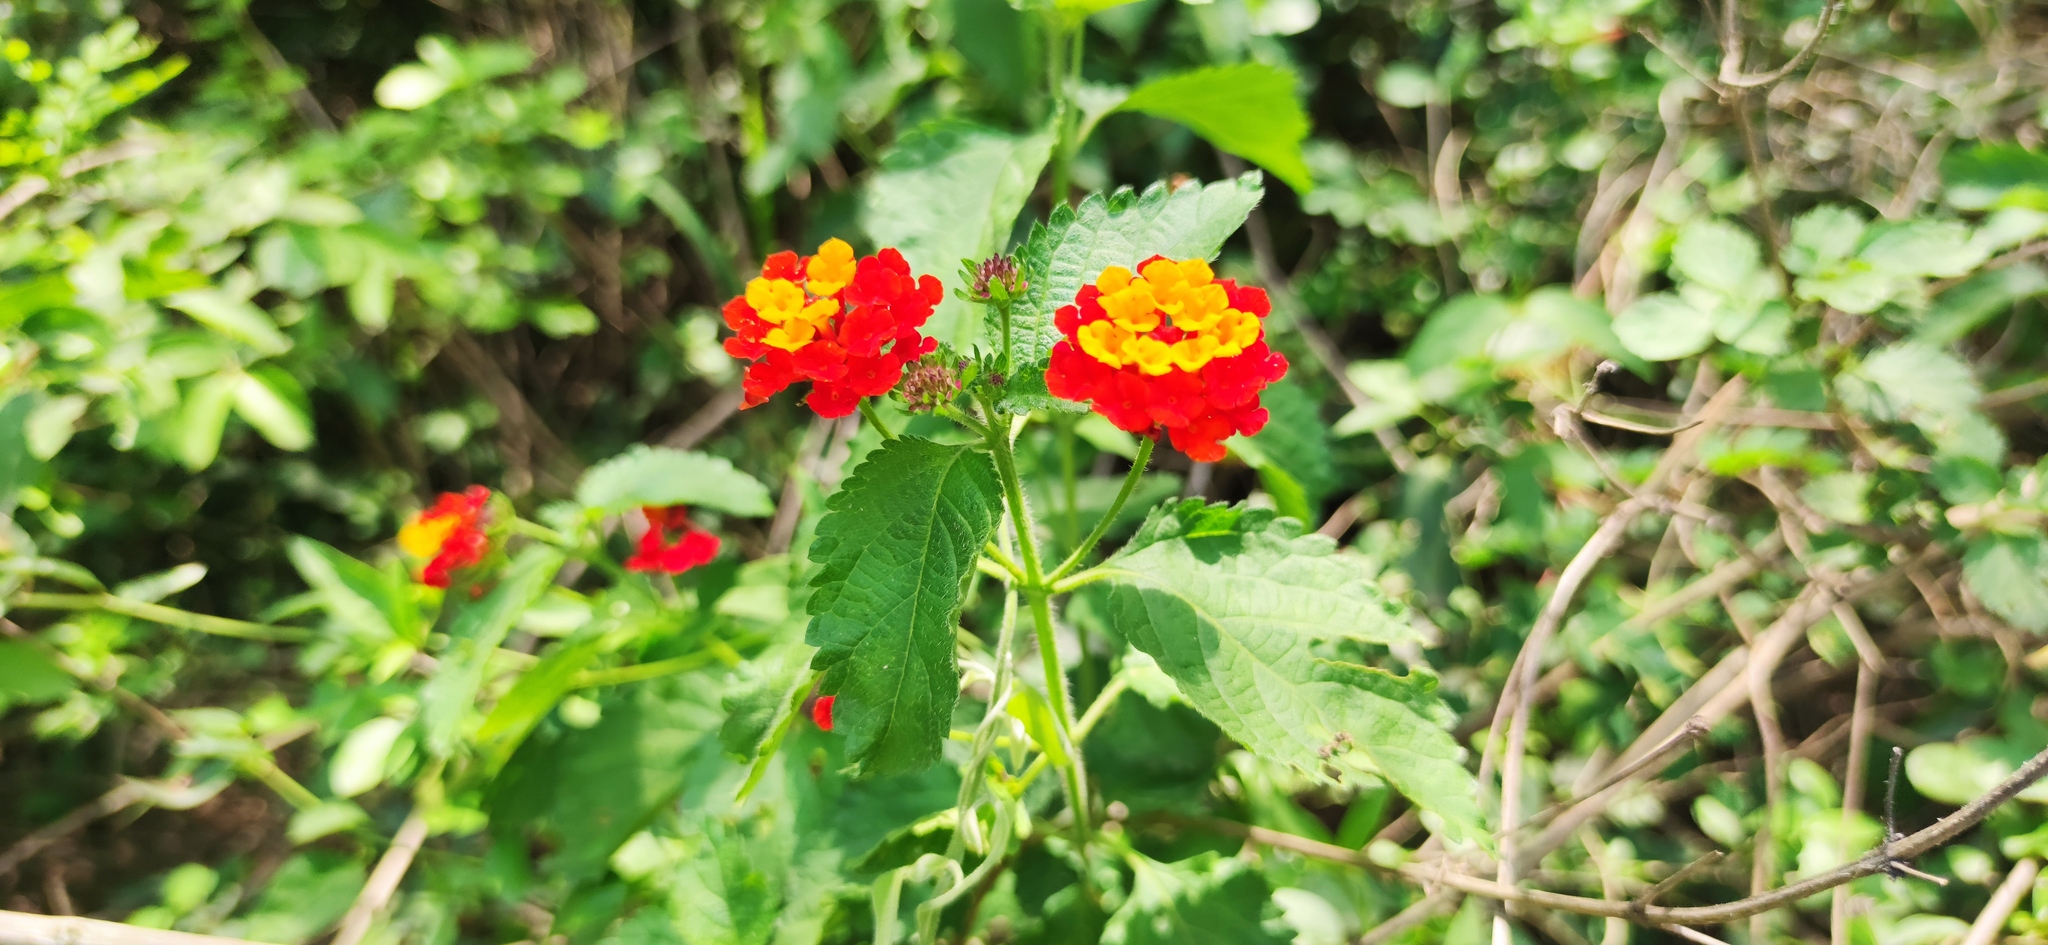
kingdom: Plantae
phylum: Tracheophyta
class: Magnoliopsida
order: Lamiales
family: Verbenaceae
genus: Lantana
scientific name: Lantana camara
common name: Lantana
